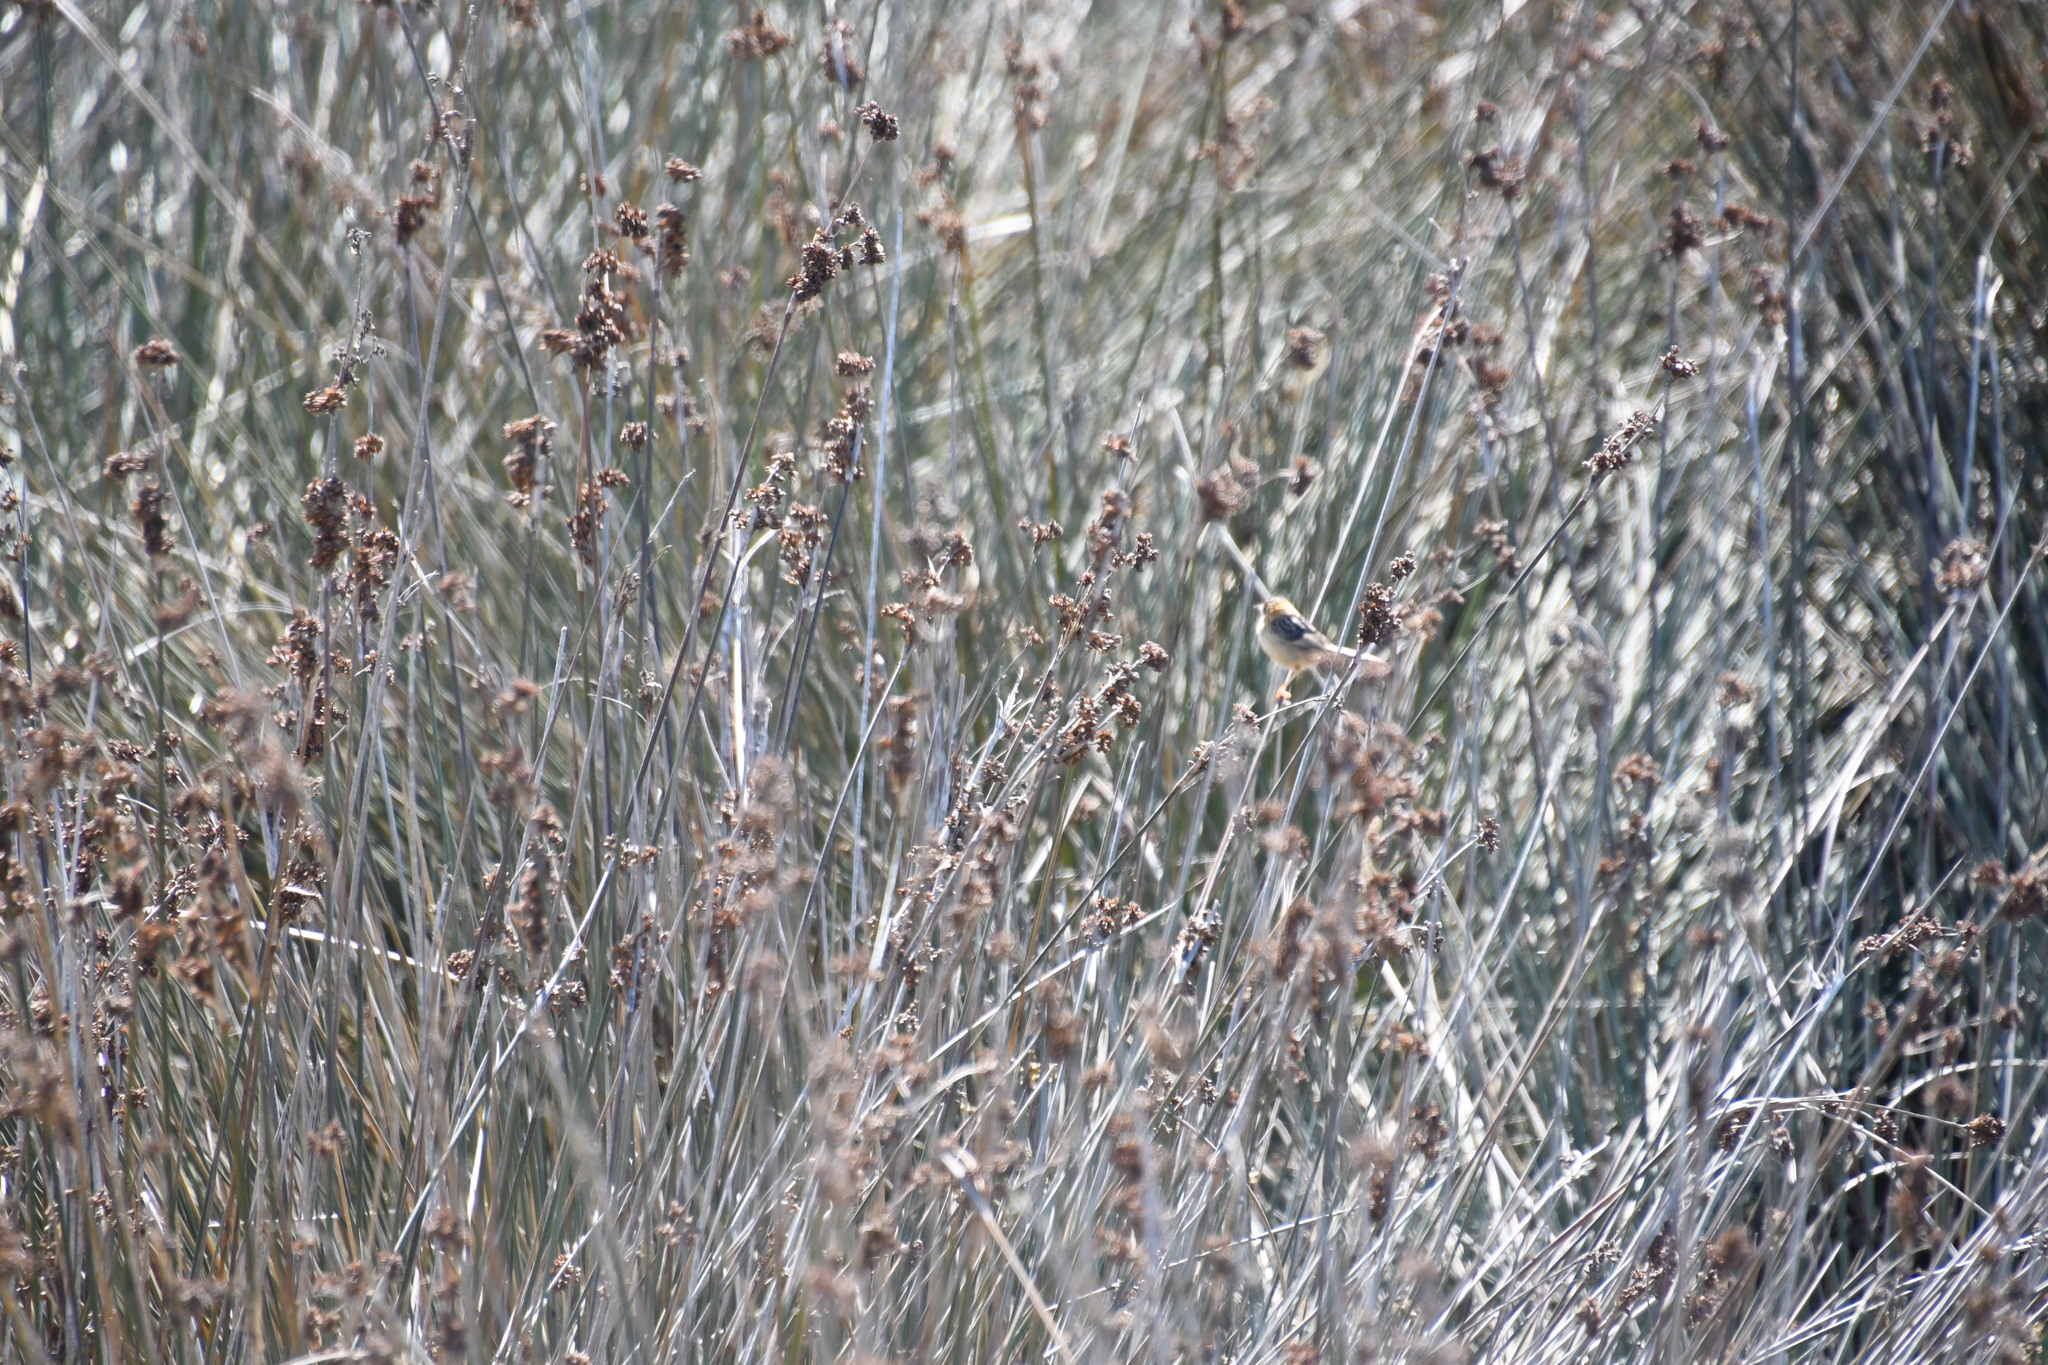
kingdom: Animalia
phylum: Chordata
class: Aves
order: Passeriformes
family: Cisticolidae
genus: Cisticola
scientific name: Cisticola exilis
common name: Golden-headed cisticola
